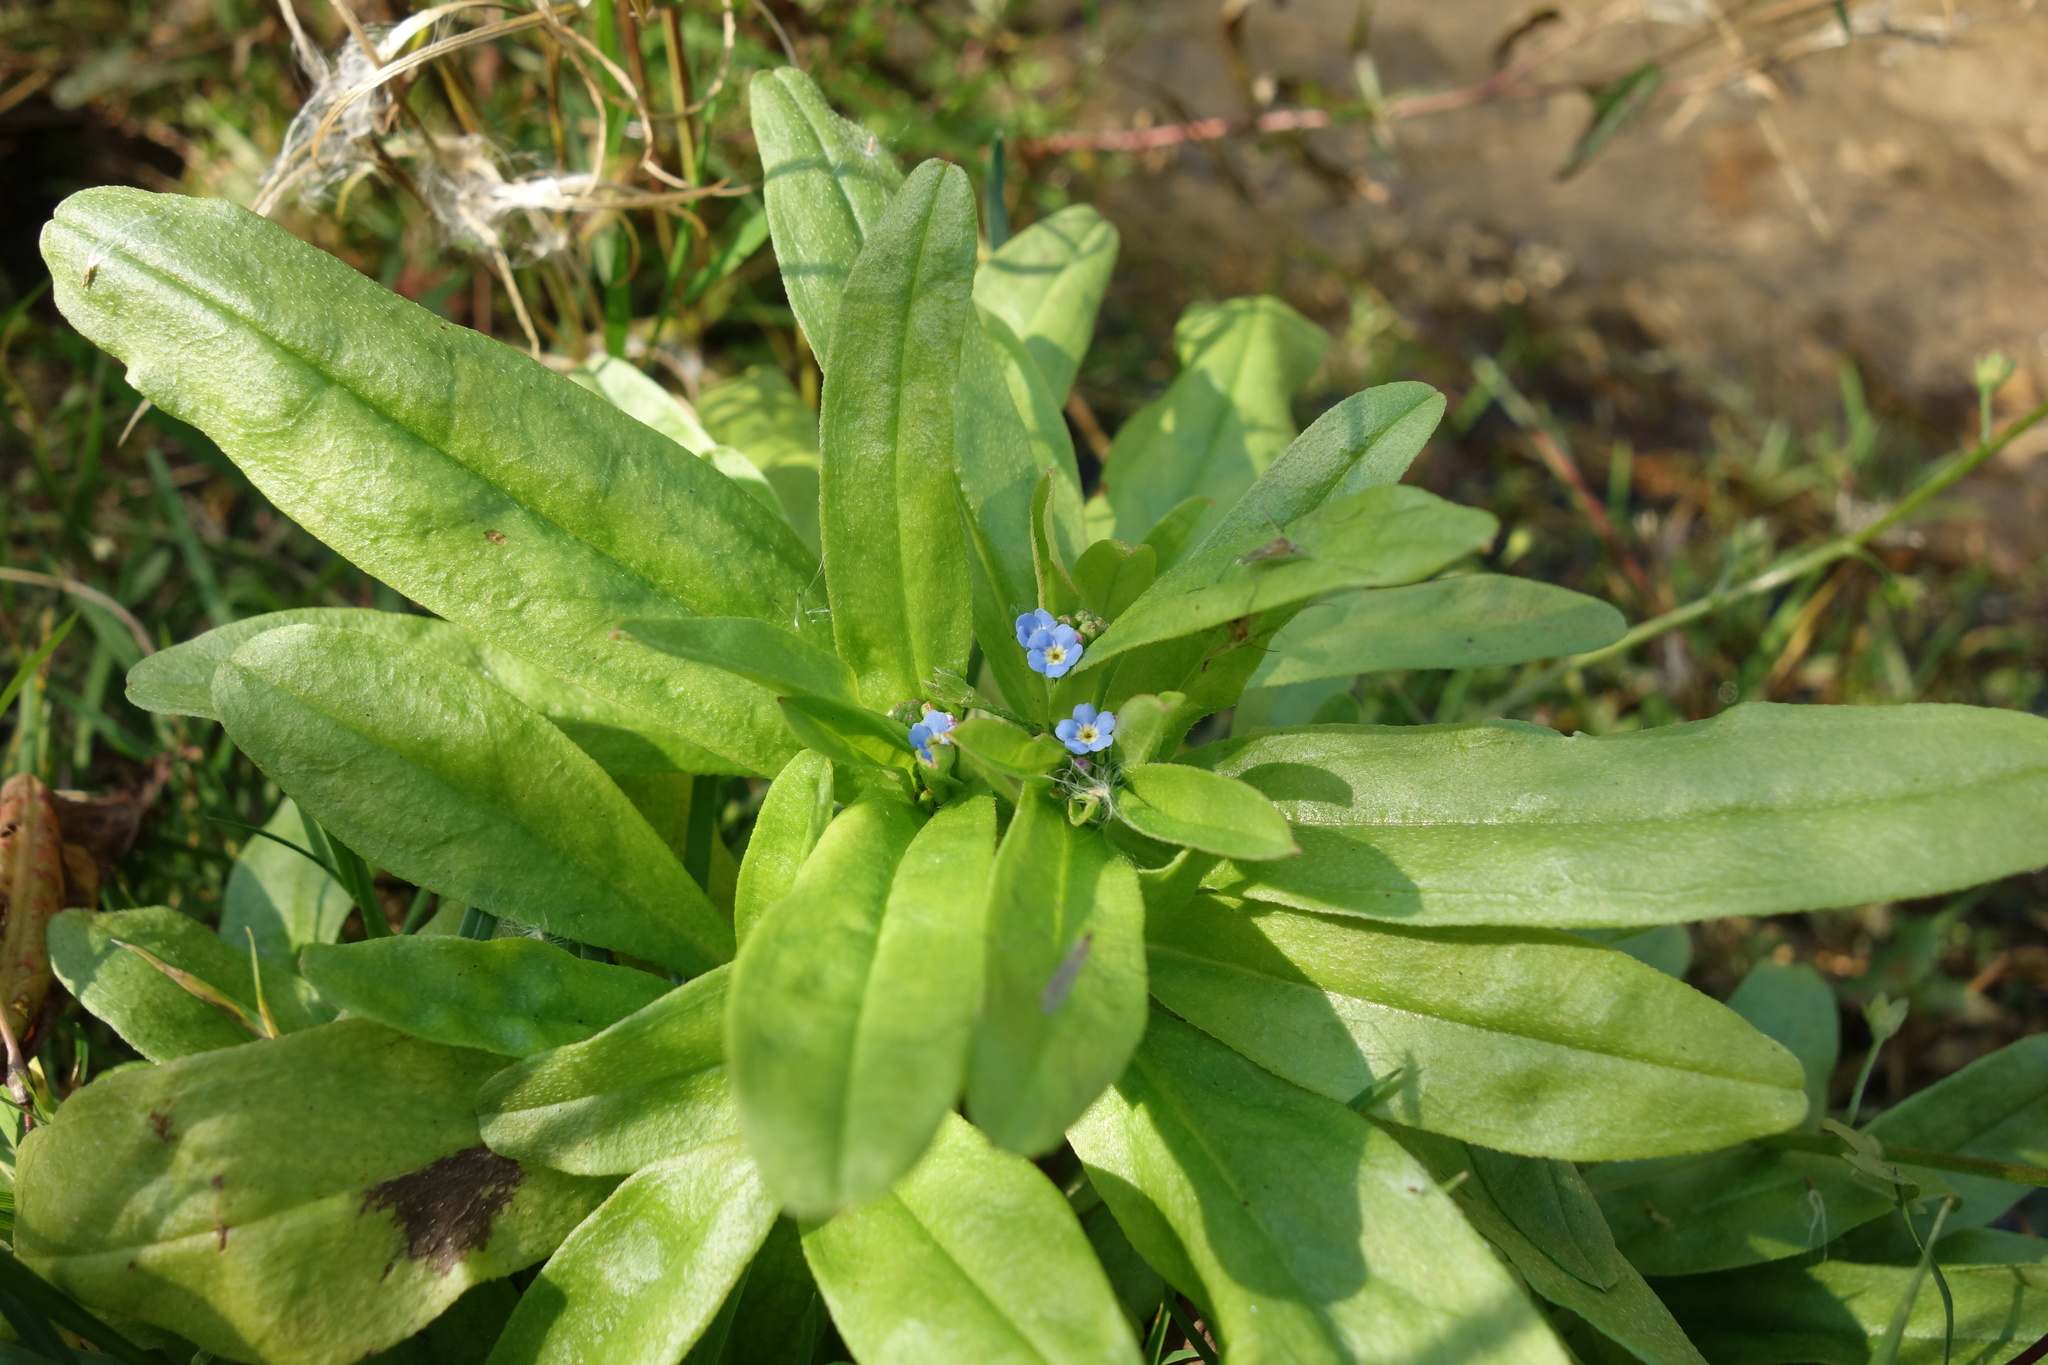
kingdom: Plantae
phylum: Tracheophyta
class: Magnoliopsida
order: Boraginales
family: Boraginaceae
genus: Myosotis
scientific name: Myosotis scorpioides
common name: Water forget-me-not
